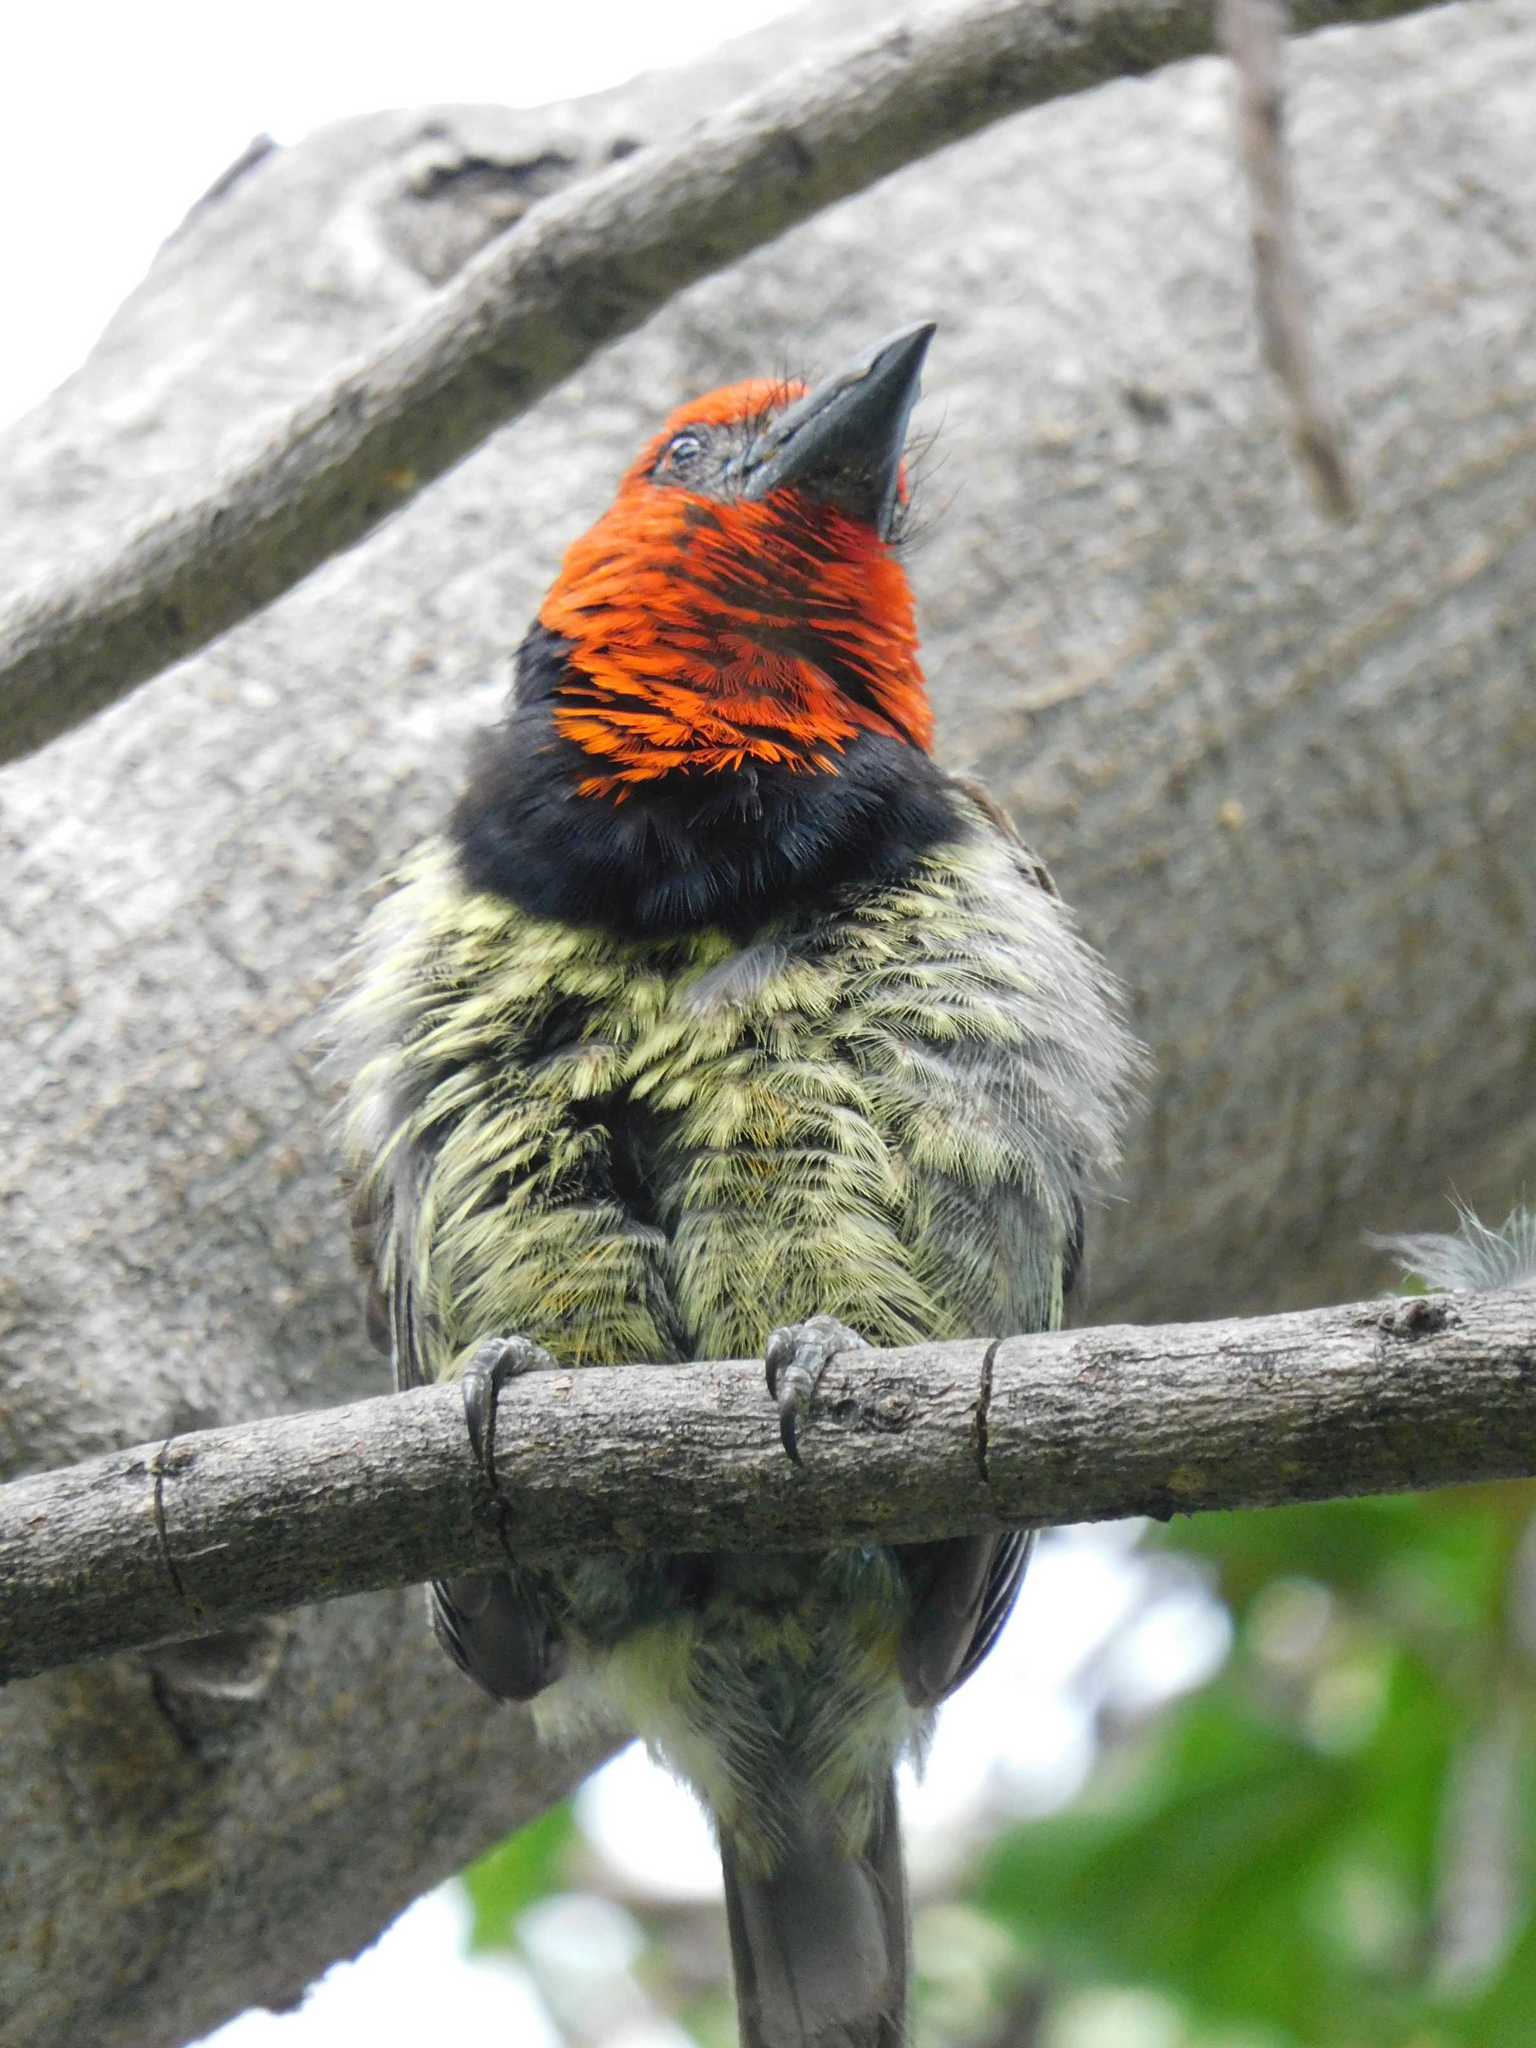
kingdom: Animalia
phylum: Chordata
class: Aves
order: Piciformes
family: Lybiidae
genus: Lybius
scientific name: Lybius torquatus
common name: Black-collared barbet
